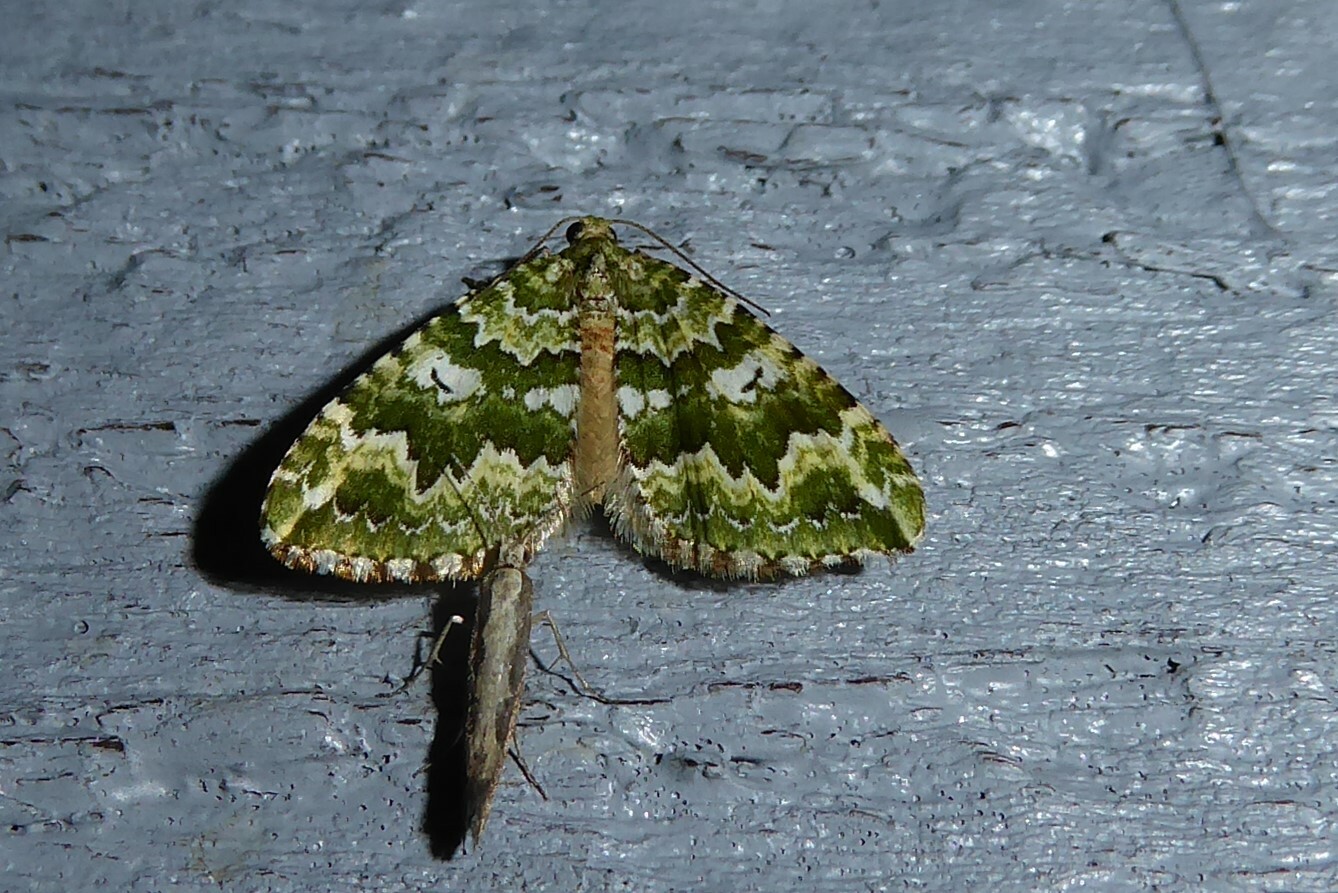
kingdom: Animalia
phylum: Arthropoda
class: Insecta
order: Lepidoptera
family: Geometridae
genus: Asaphodes
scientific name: Asaphodes beata
